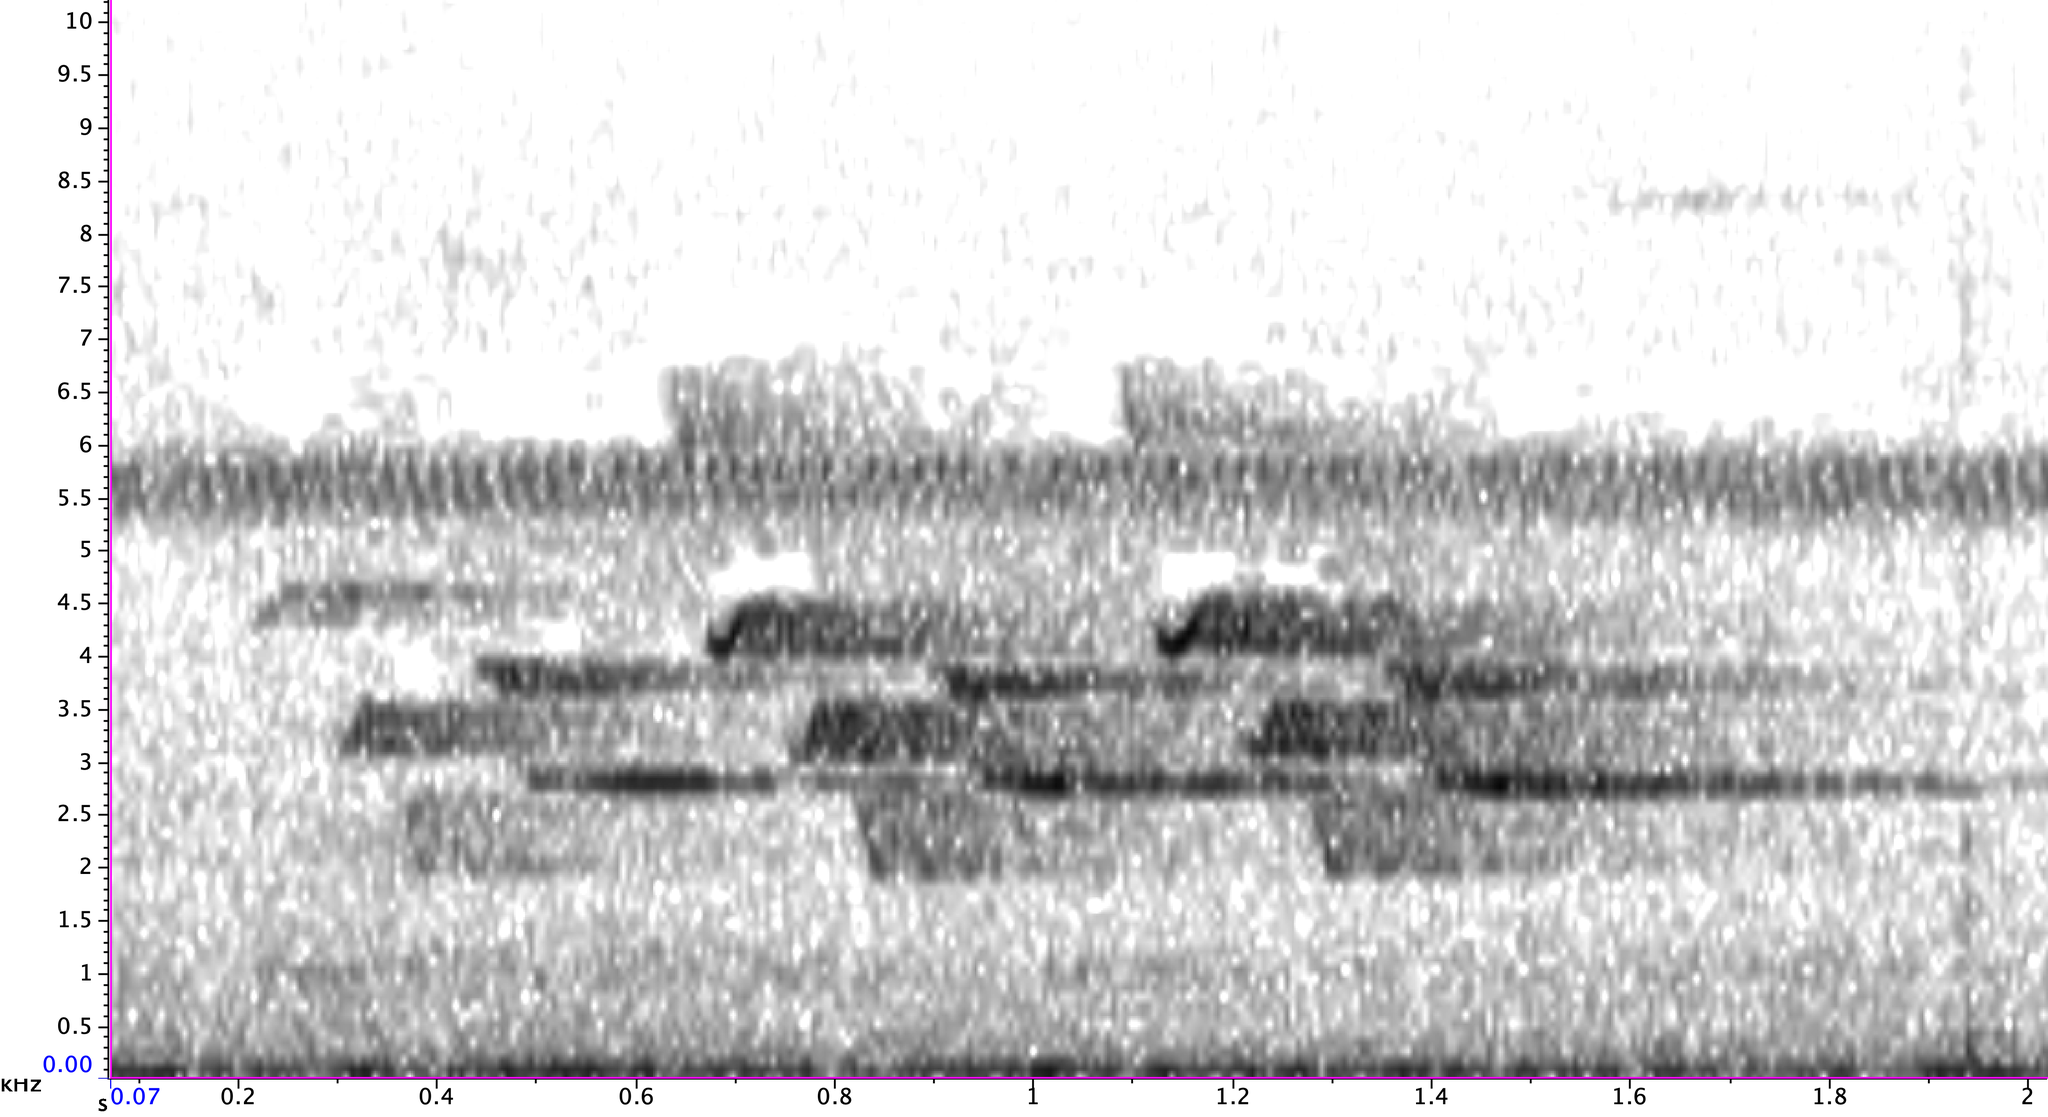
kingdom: Animalia
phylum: Chordata
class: Aves
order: Passeriformes
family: Troglodytidae
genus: Thryothorus
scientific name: Thryothorus ludovicianus
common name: Carolina wren
